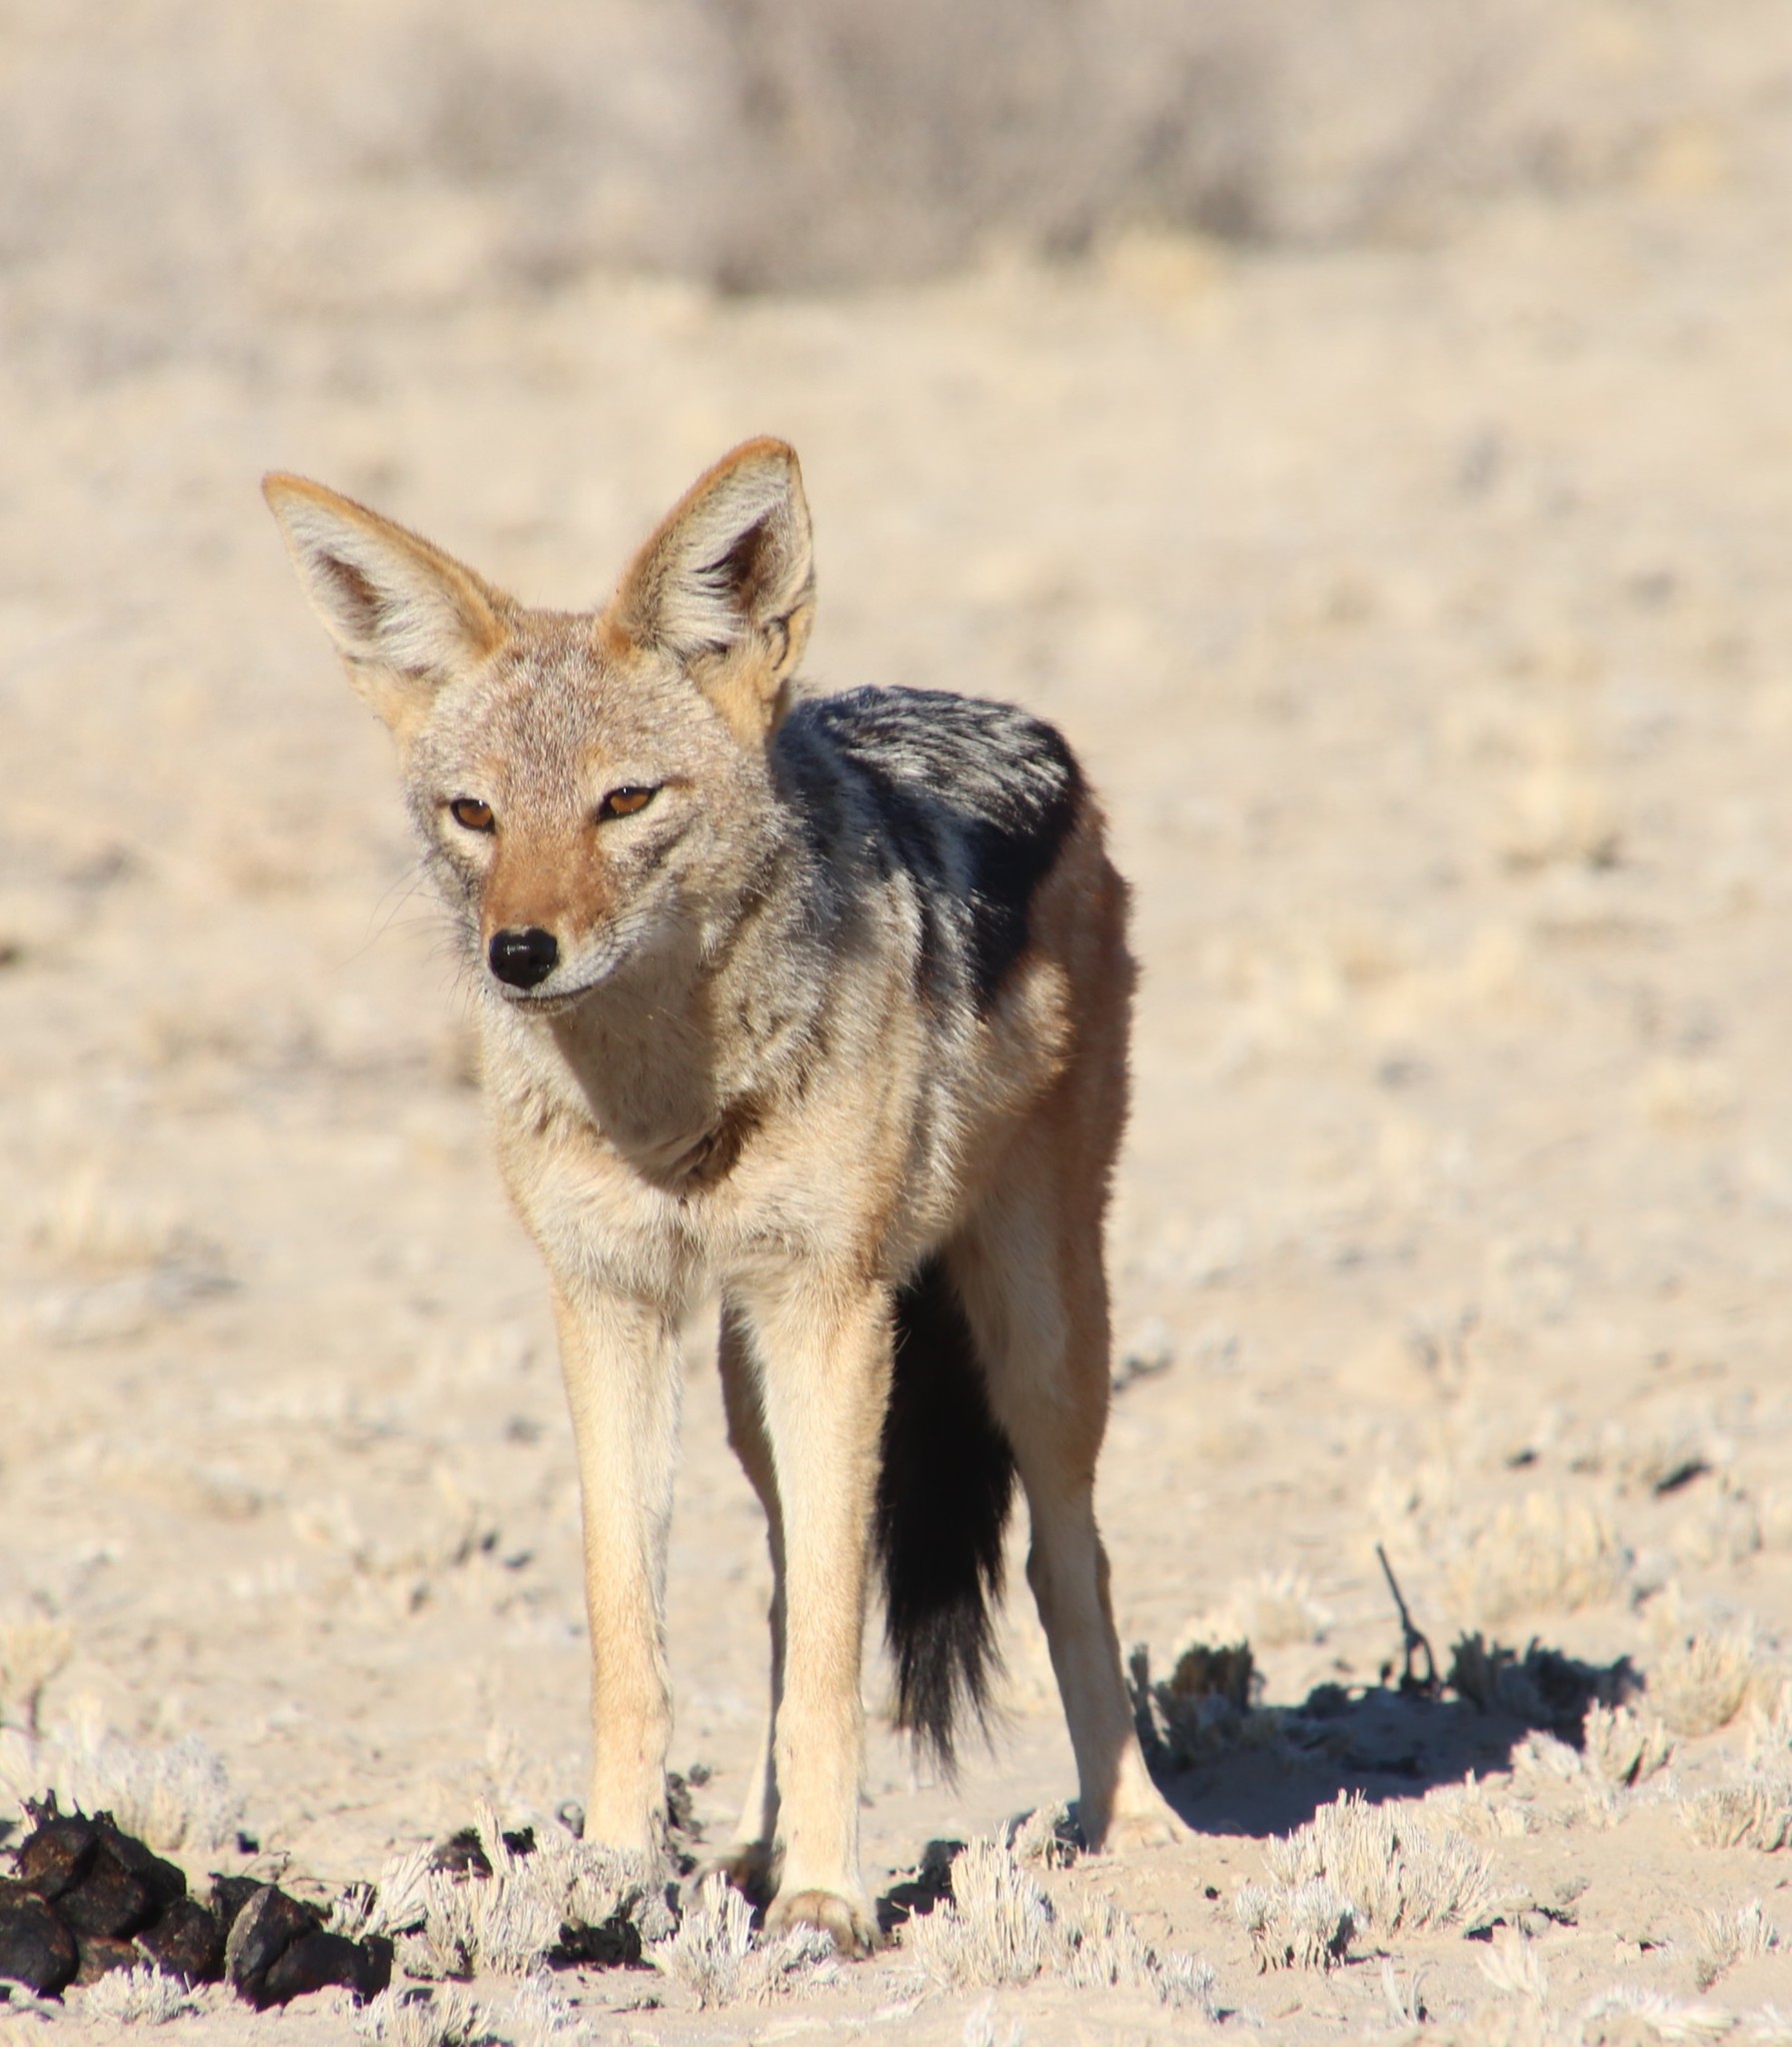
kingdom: Animalia
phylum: Chordata
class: Mammalia
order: Carnivora
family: Canidae
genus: Lupulella
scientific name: Lupulella
